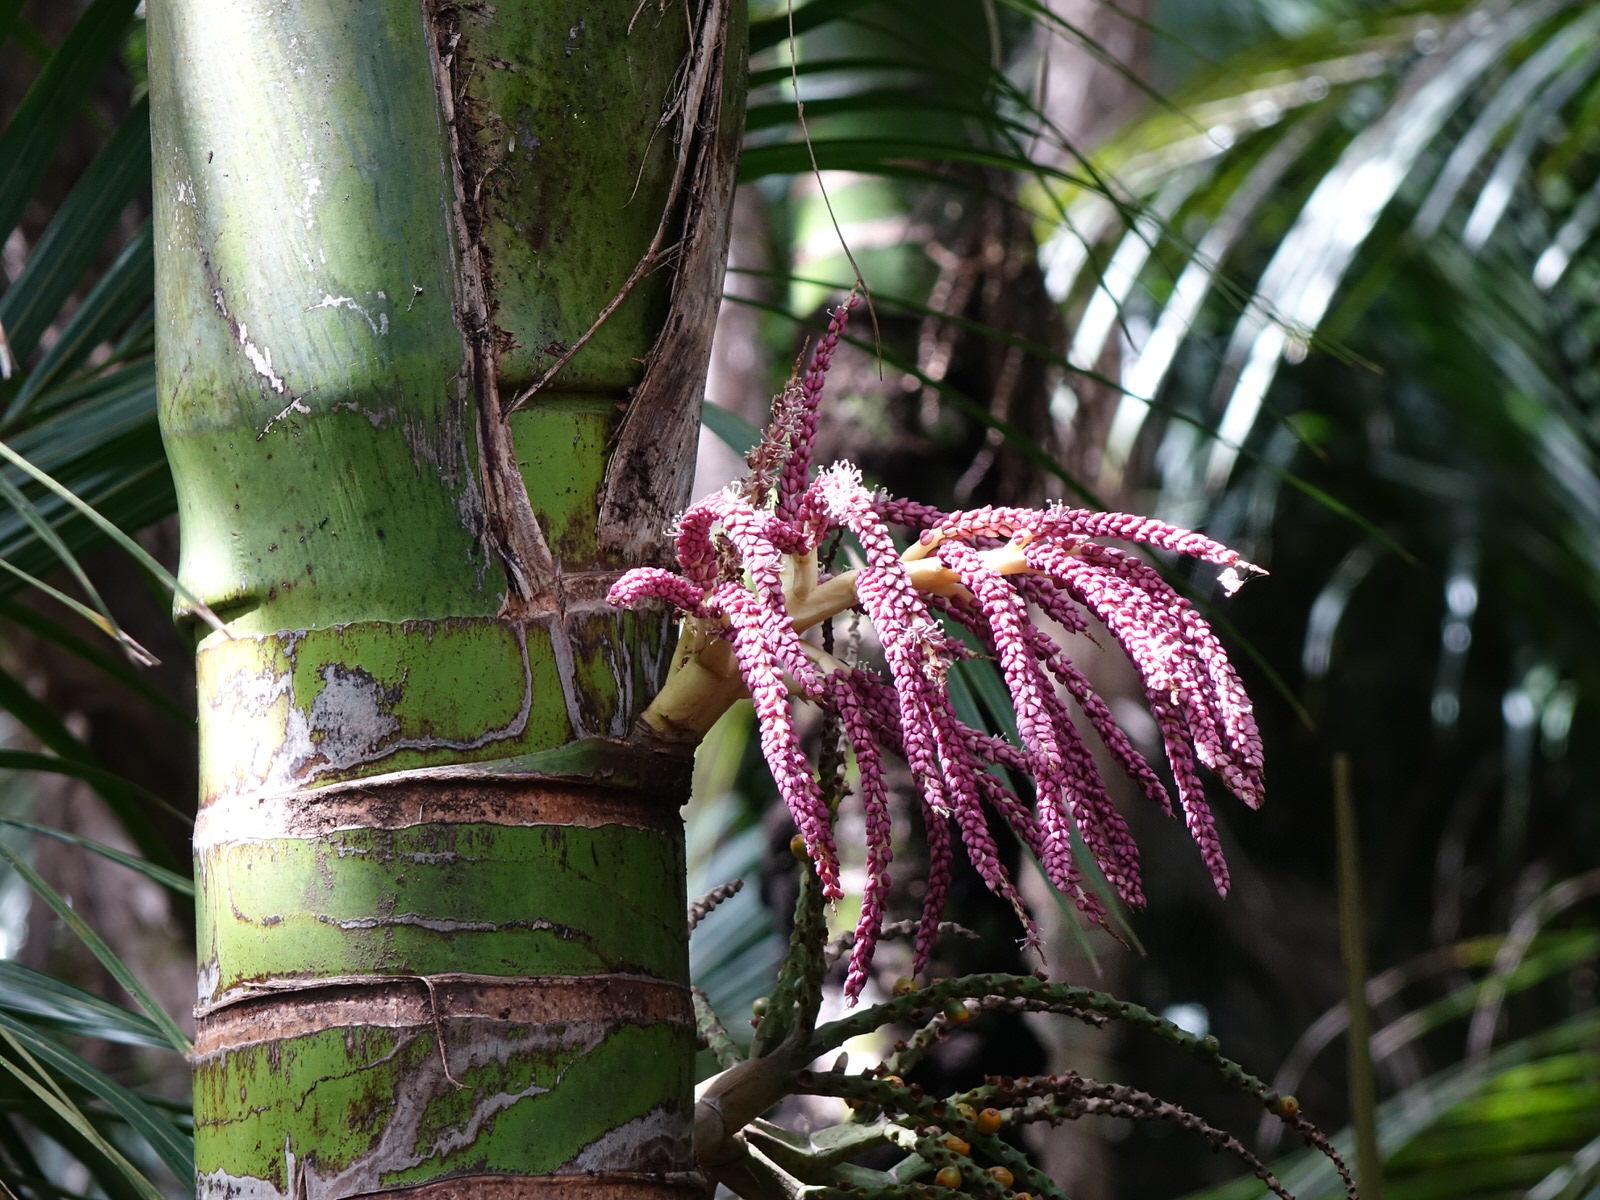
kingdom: Plantae
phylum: Tracheophyta
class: Liliopsida
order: Arecales
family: Arecaceae
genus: Rhopalostylis
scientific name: Rhopalostylis sapida
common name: Feather-duster palm
